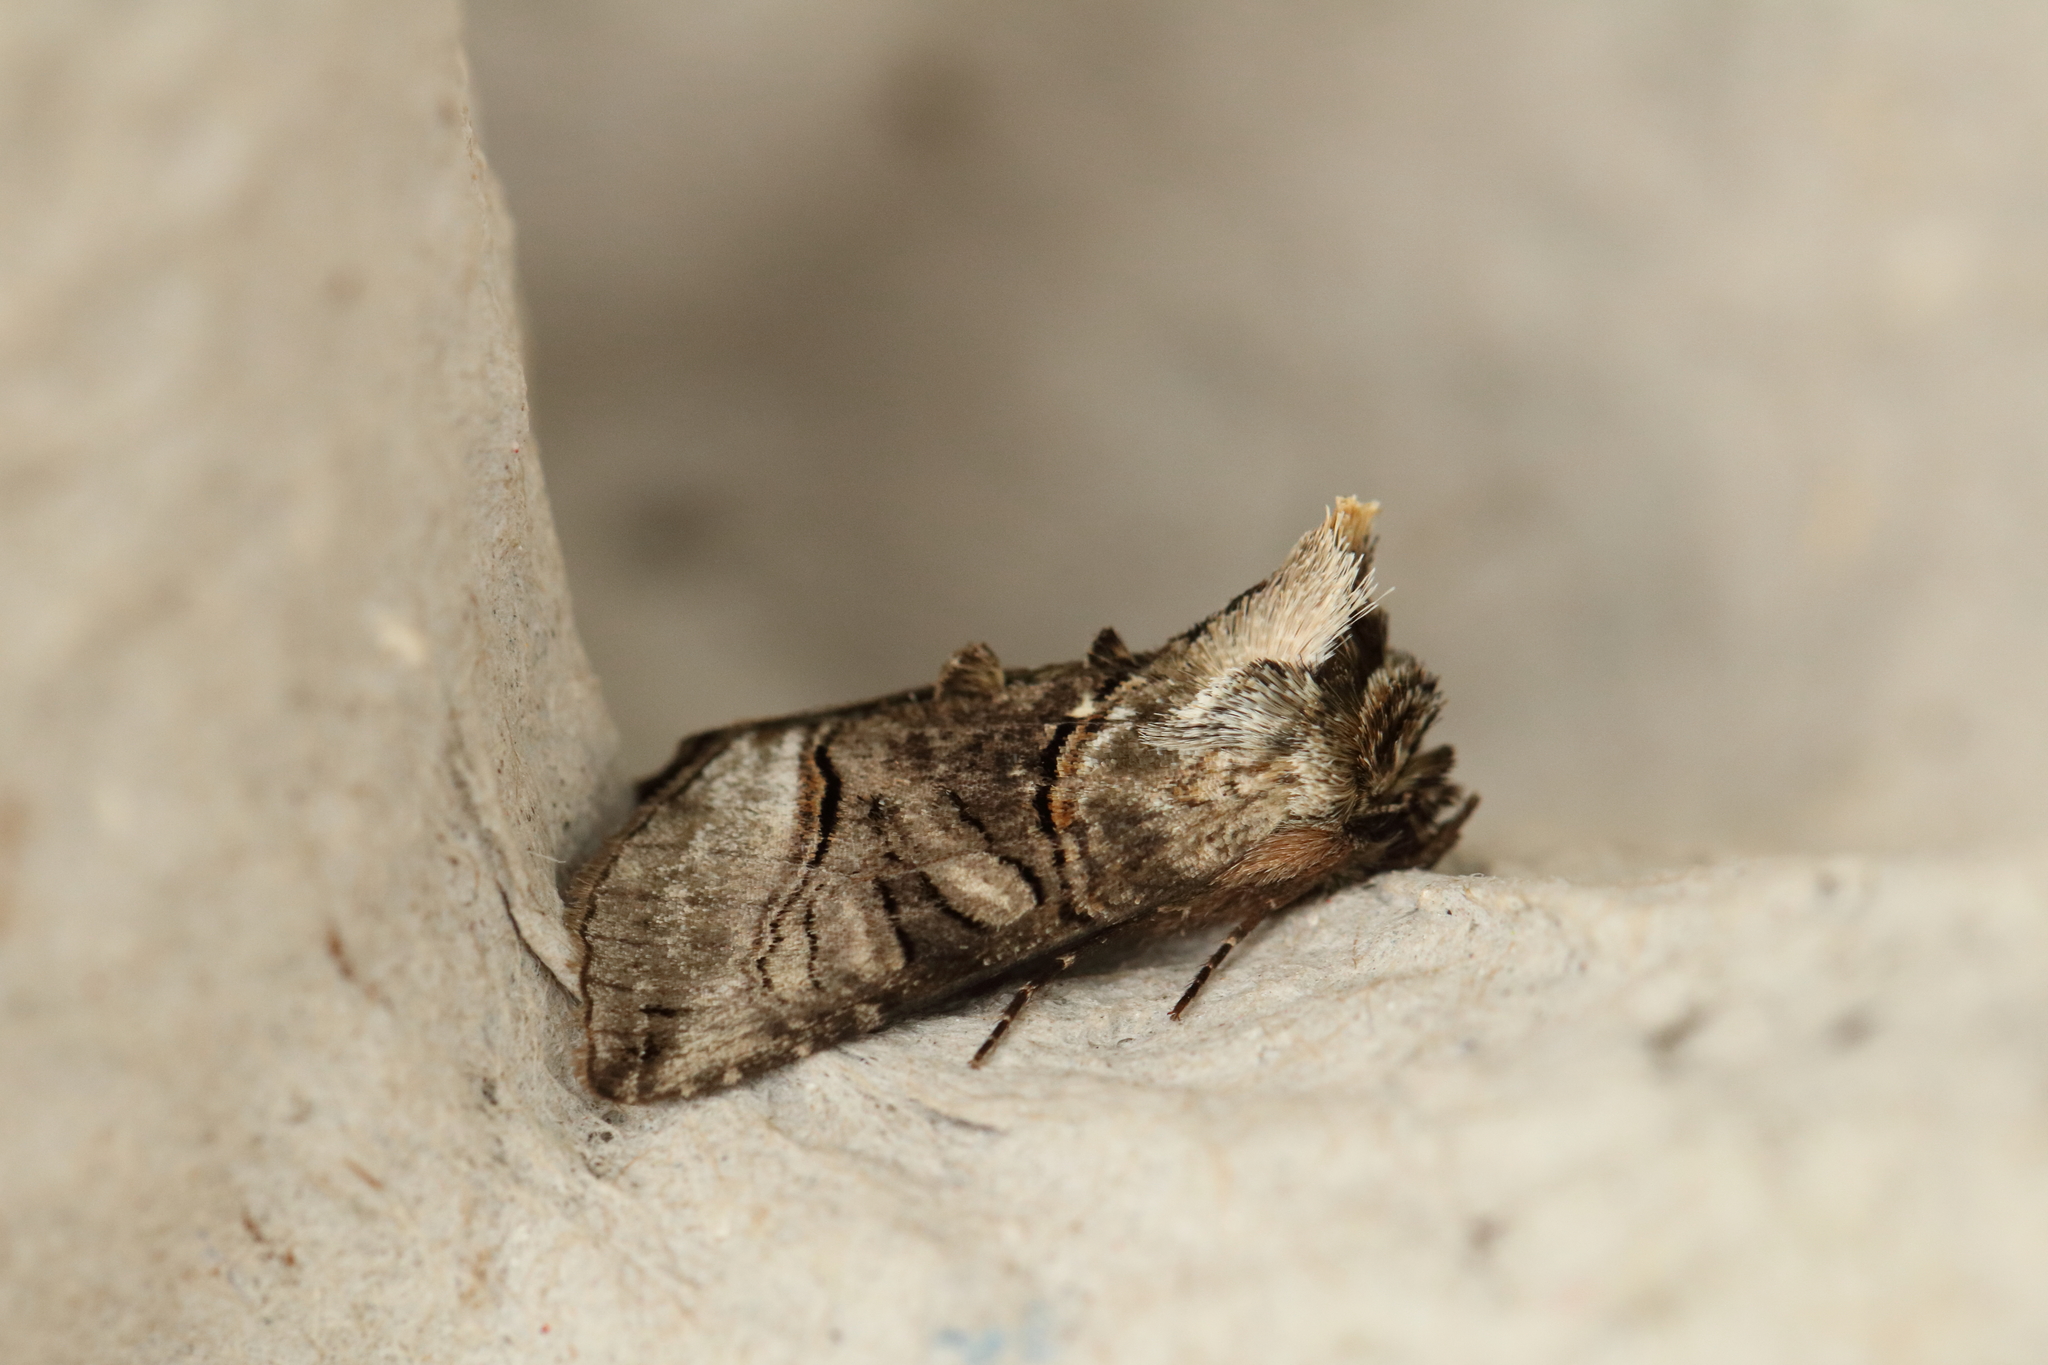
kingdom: Animalia
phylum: Arthropoda
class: Insecta
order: Lepidoptera
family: Noctuidae
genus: Abrostola
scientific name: Abrostola tripartita
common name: Spectacle
